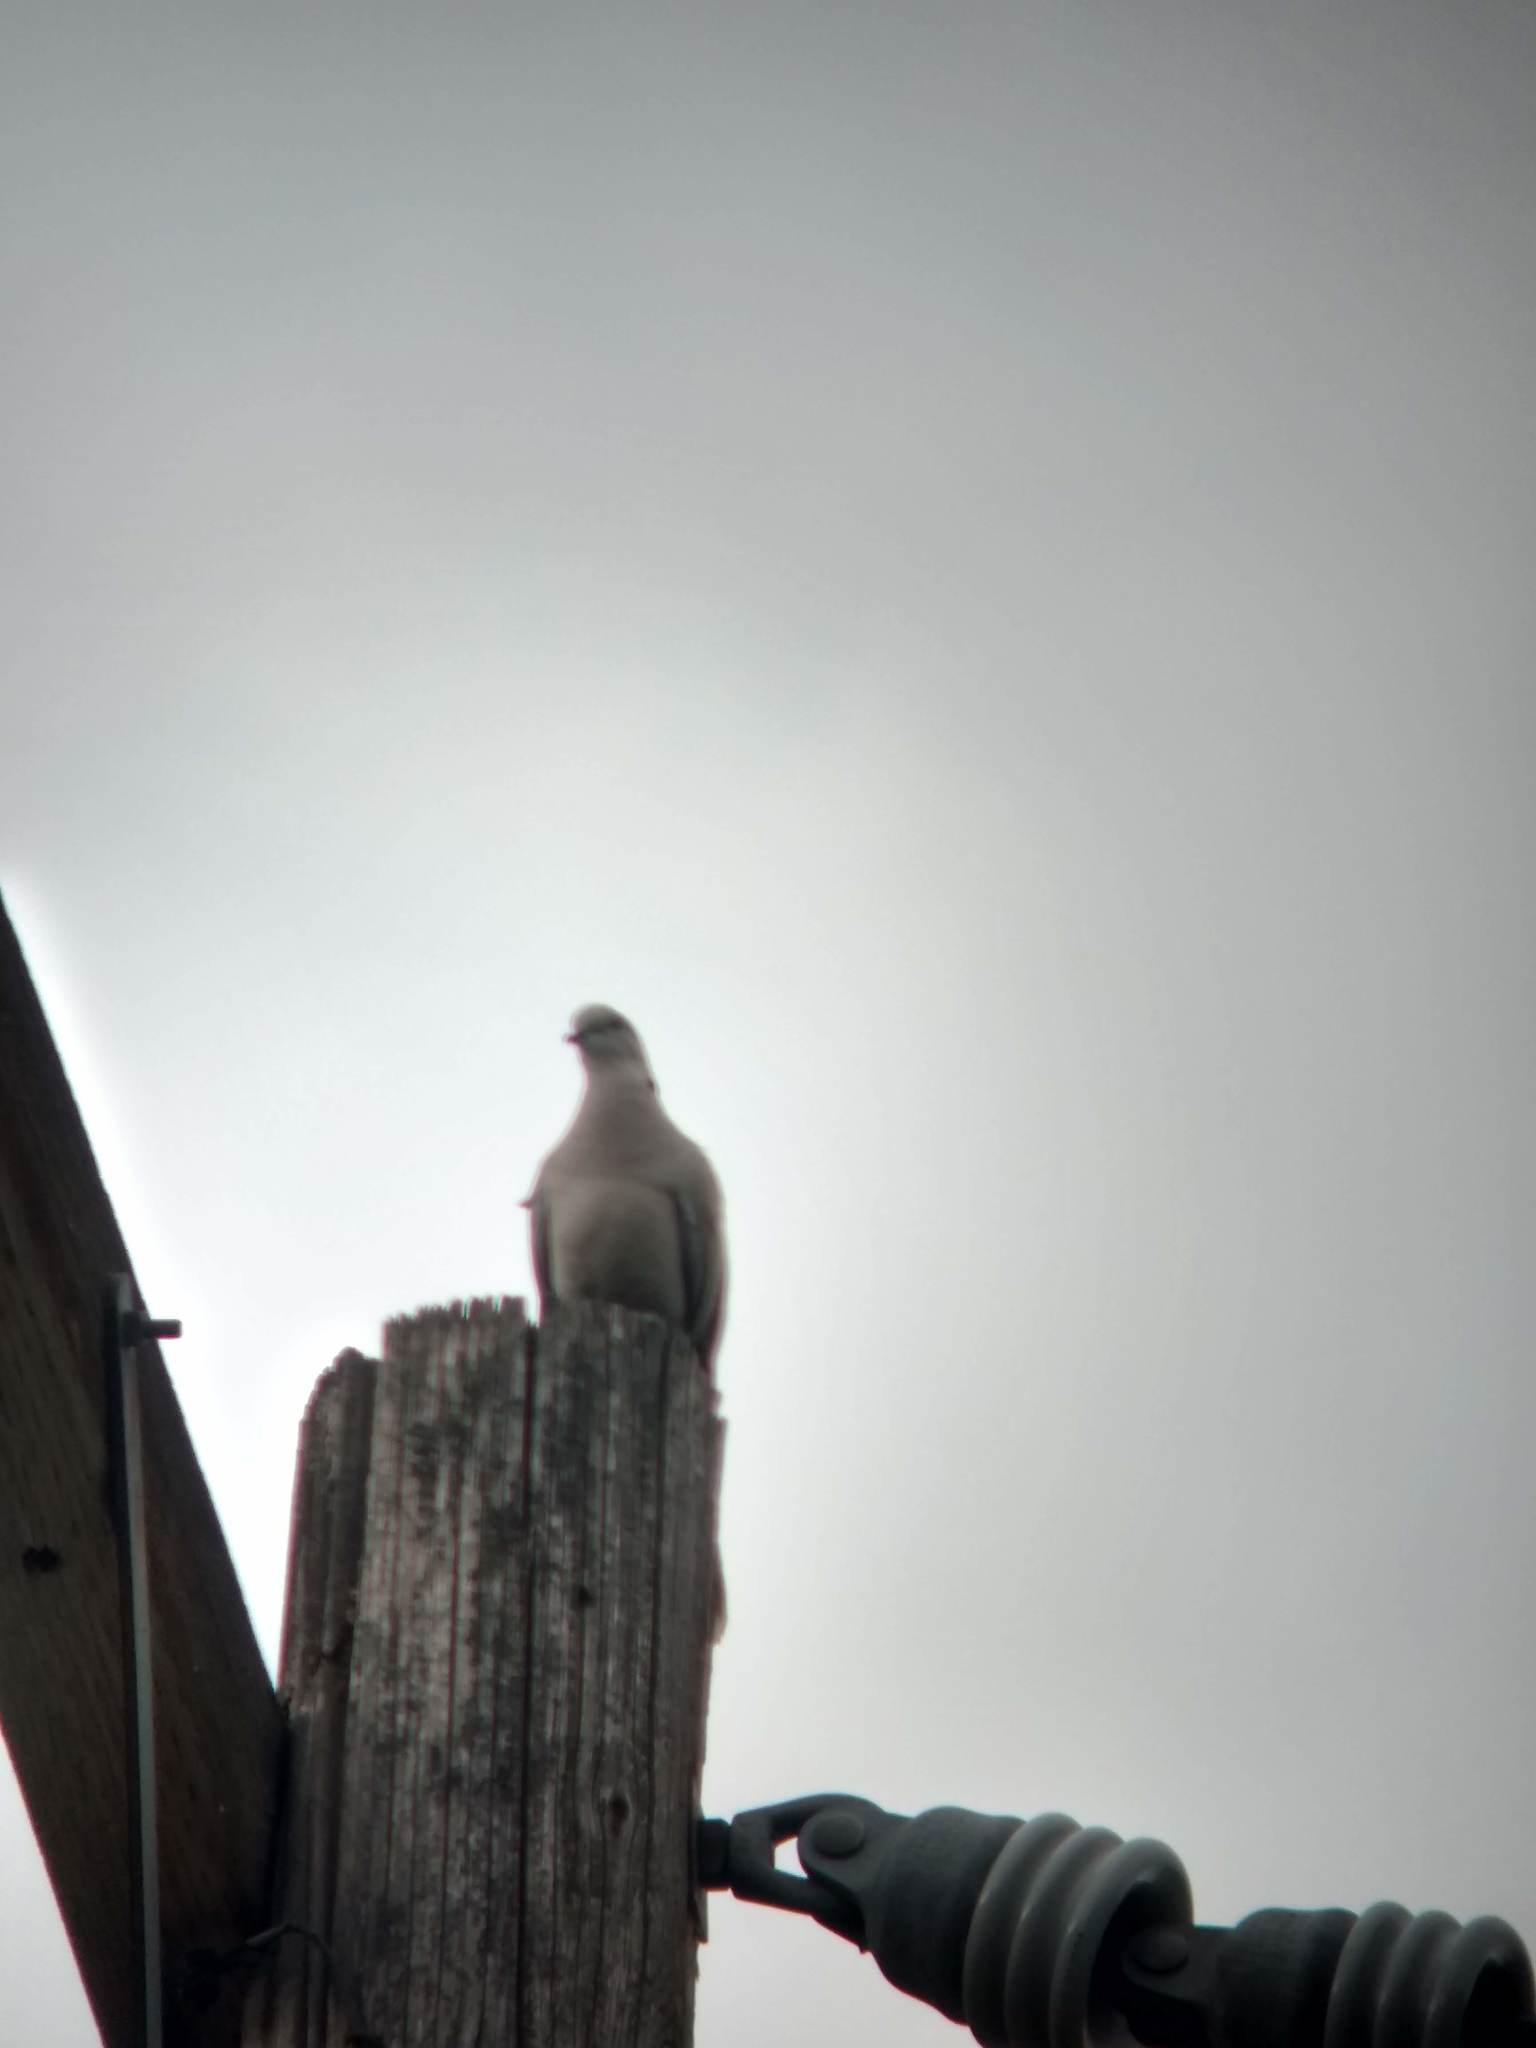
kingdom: Animalia
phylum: Chordata
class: Aves
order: Columbiformes
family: Columbidae
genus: Streptopelia
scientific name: Streptopelia decaocto
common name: Eurasian collared dove
